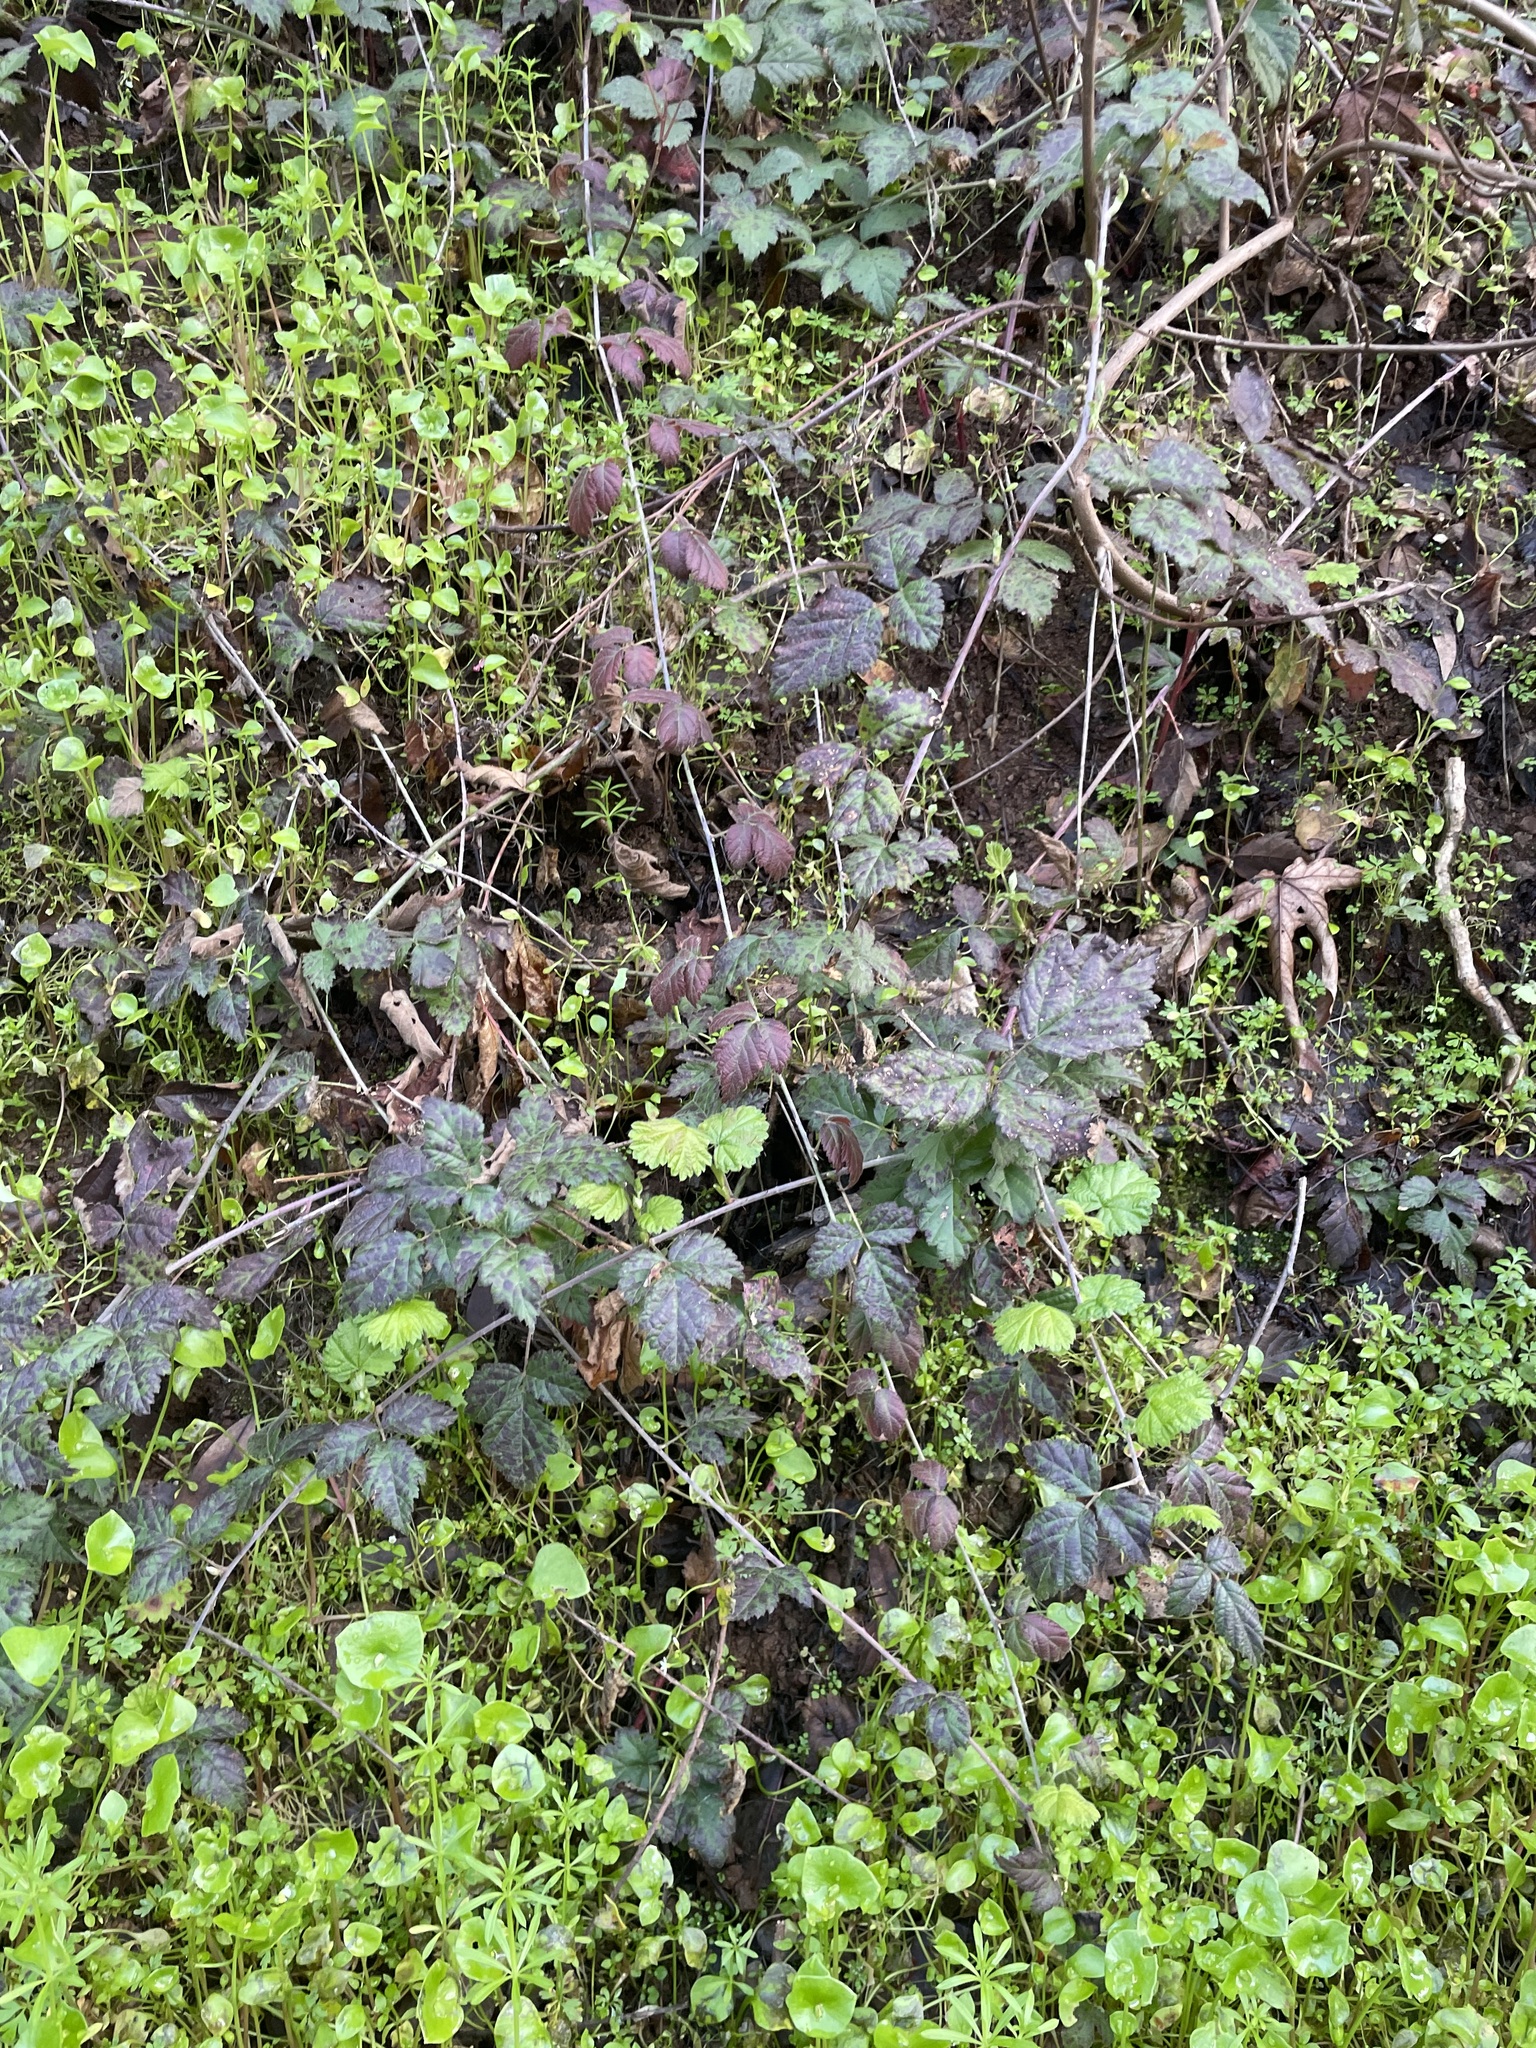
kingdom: Plantae
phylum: Tracheophyta
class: Magnoliopsida
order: Rosales
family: Rosaceae
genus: Rubus
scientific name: Rubus ursinus
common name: Pacific blackberry
